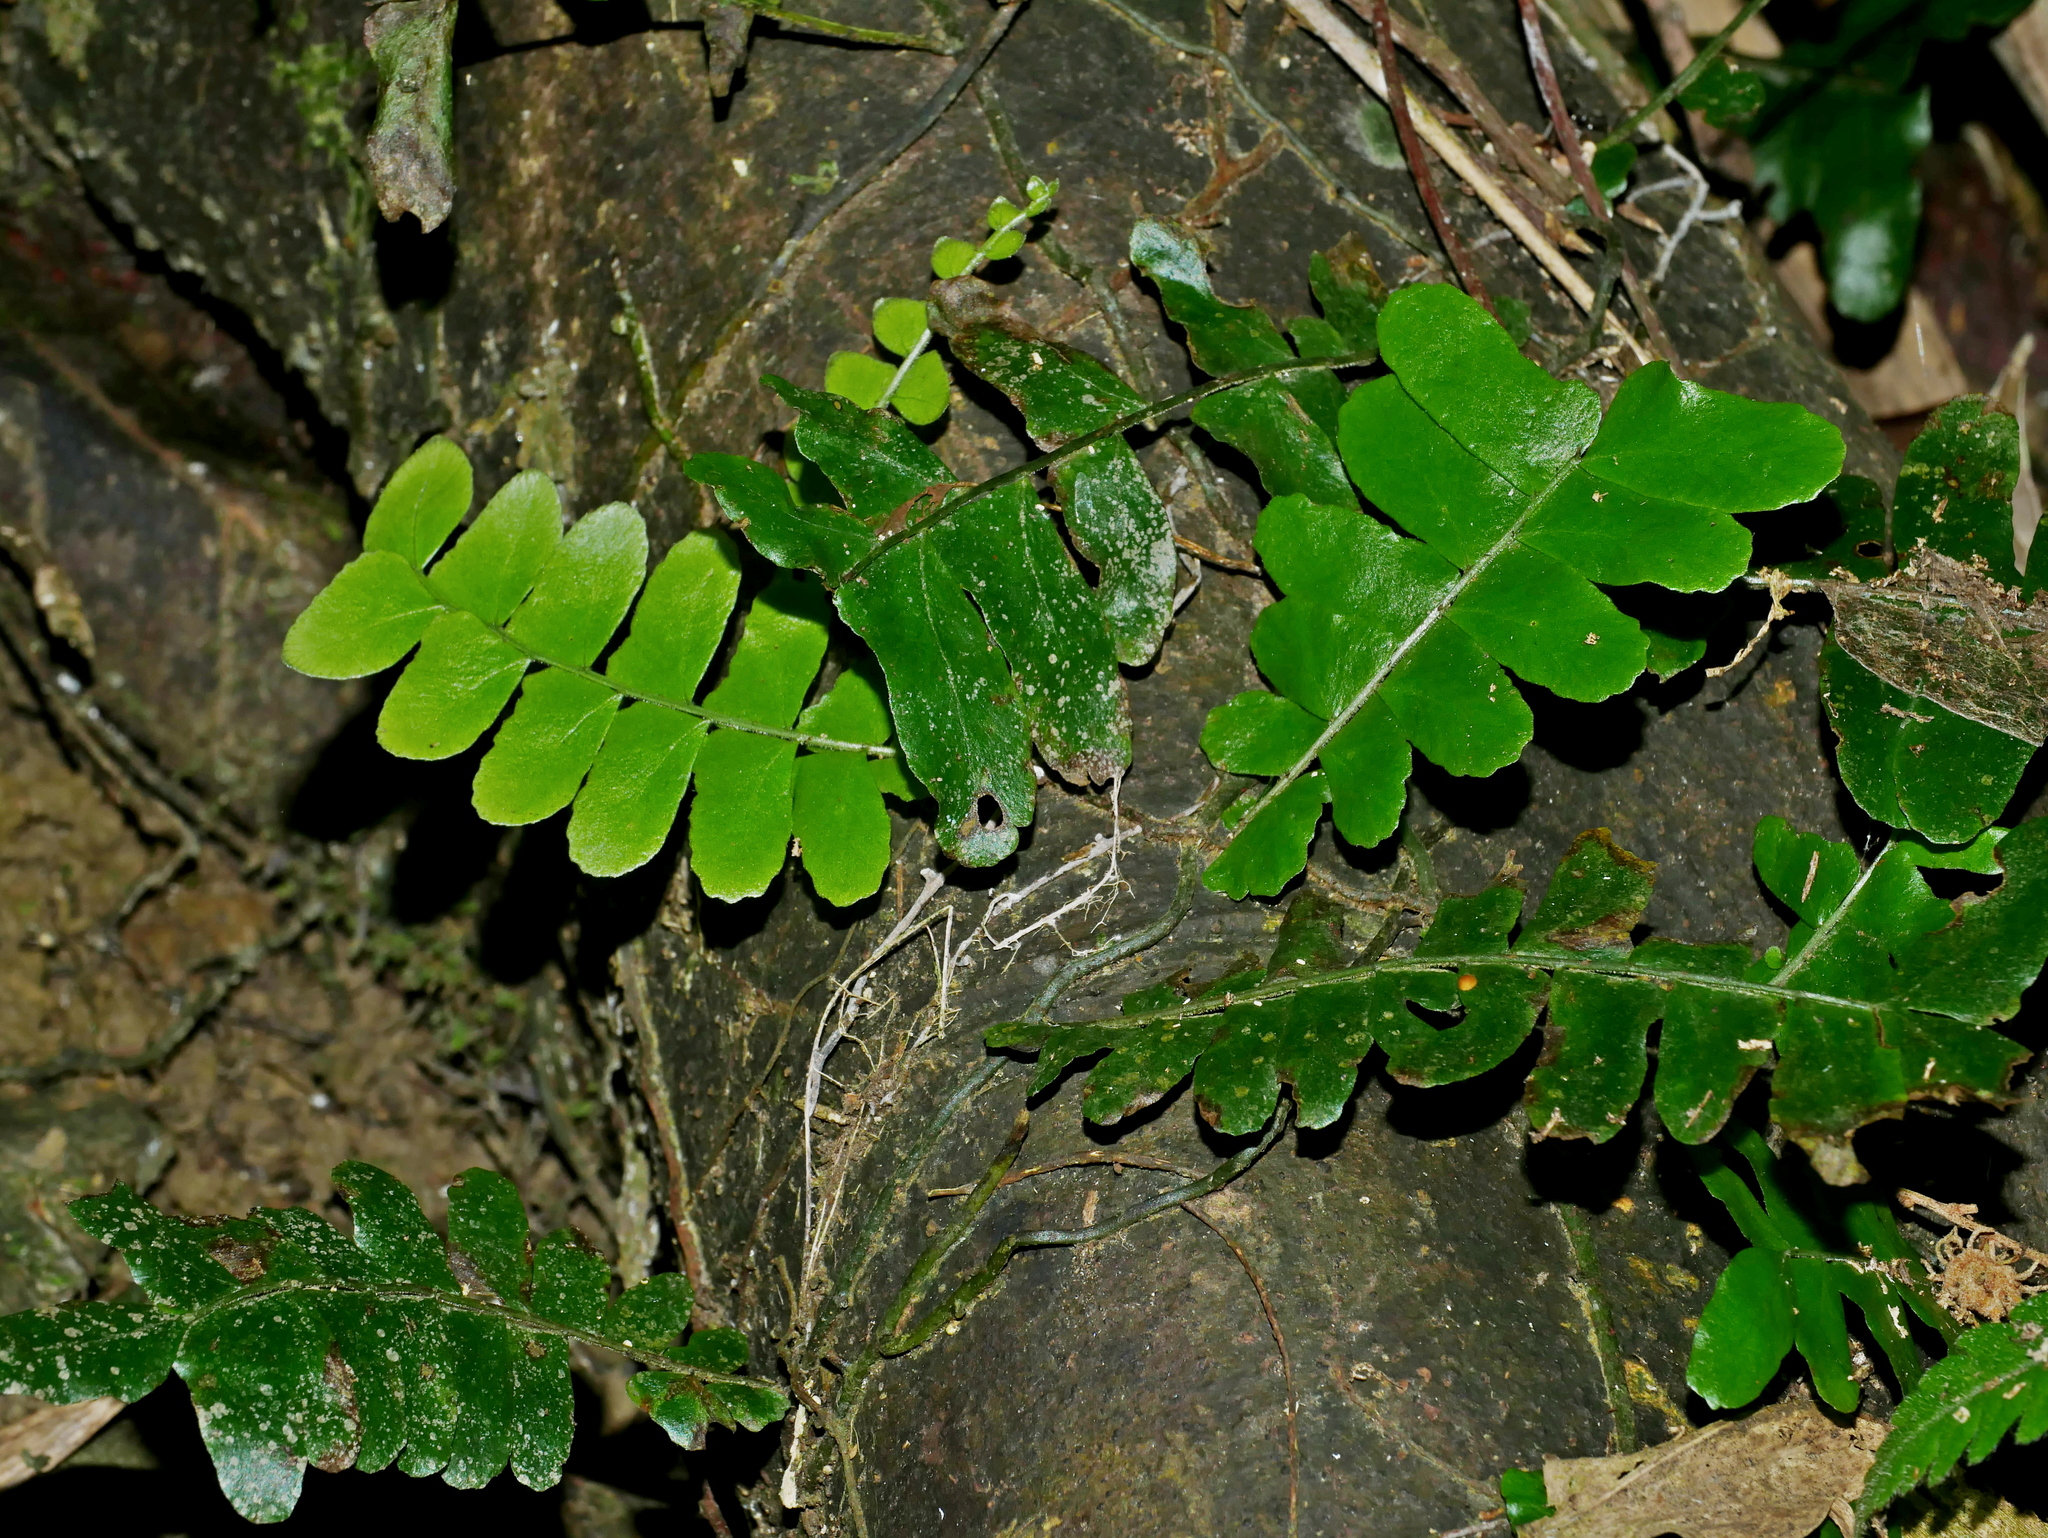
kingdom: Plantae
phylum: Tracheophyta
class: Polypodiopsida
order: Polypodiales
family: Tectariaceae
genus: Arthropteris
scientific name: Arthropteris palisotii
